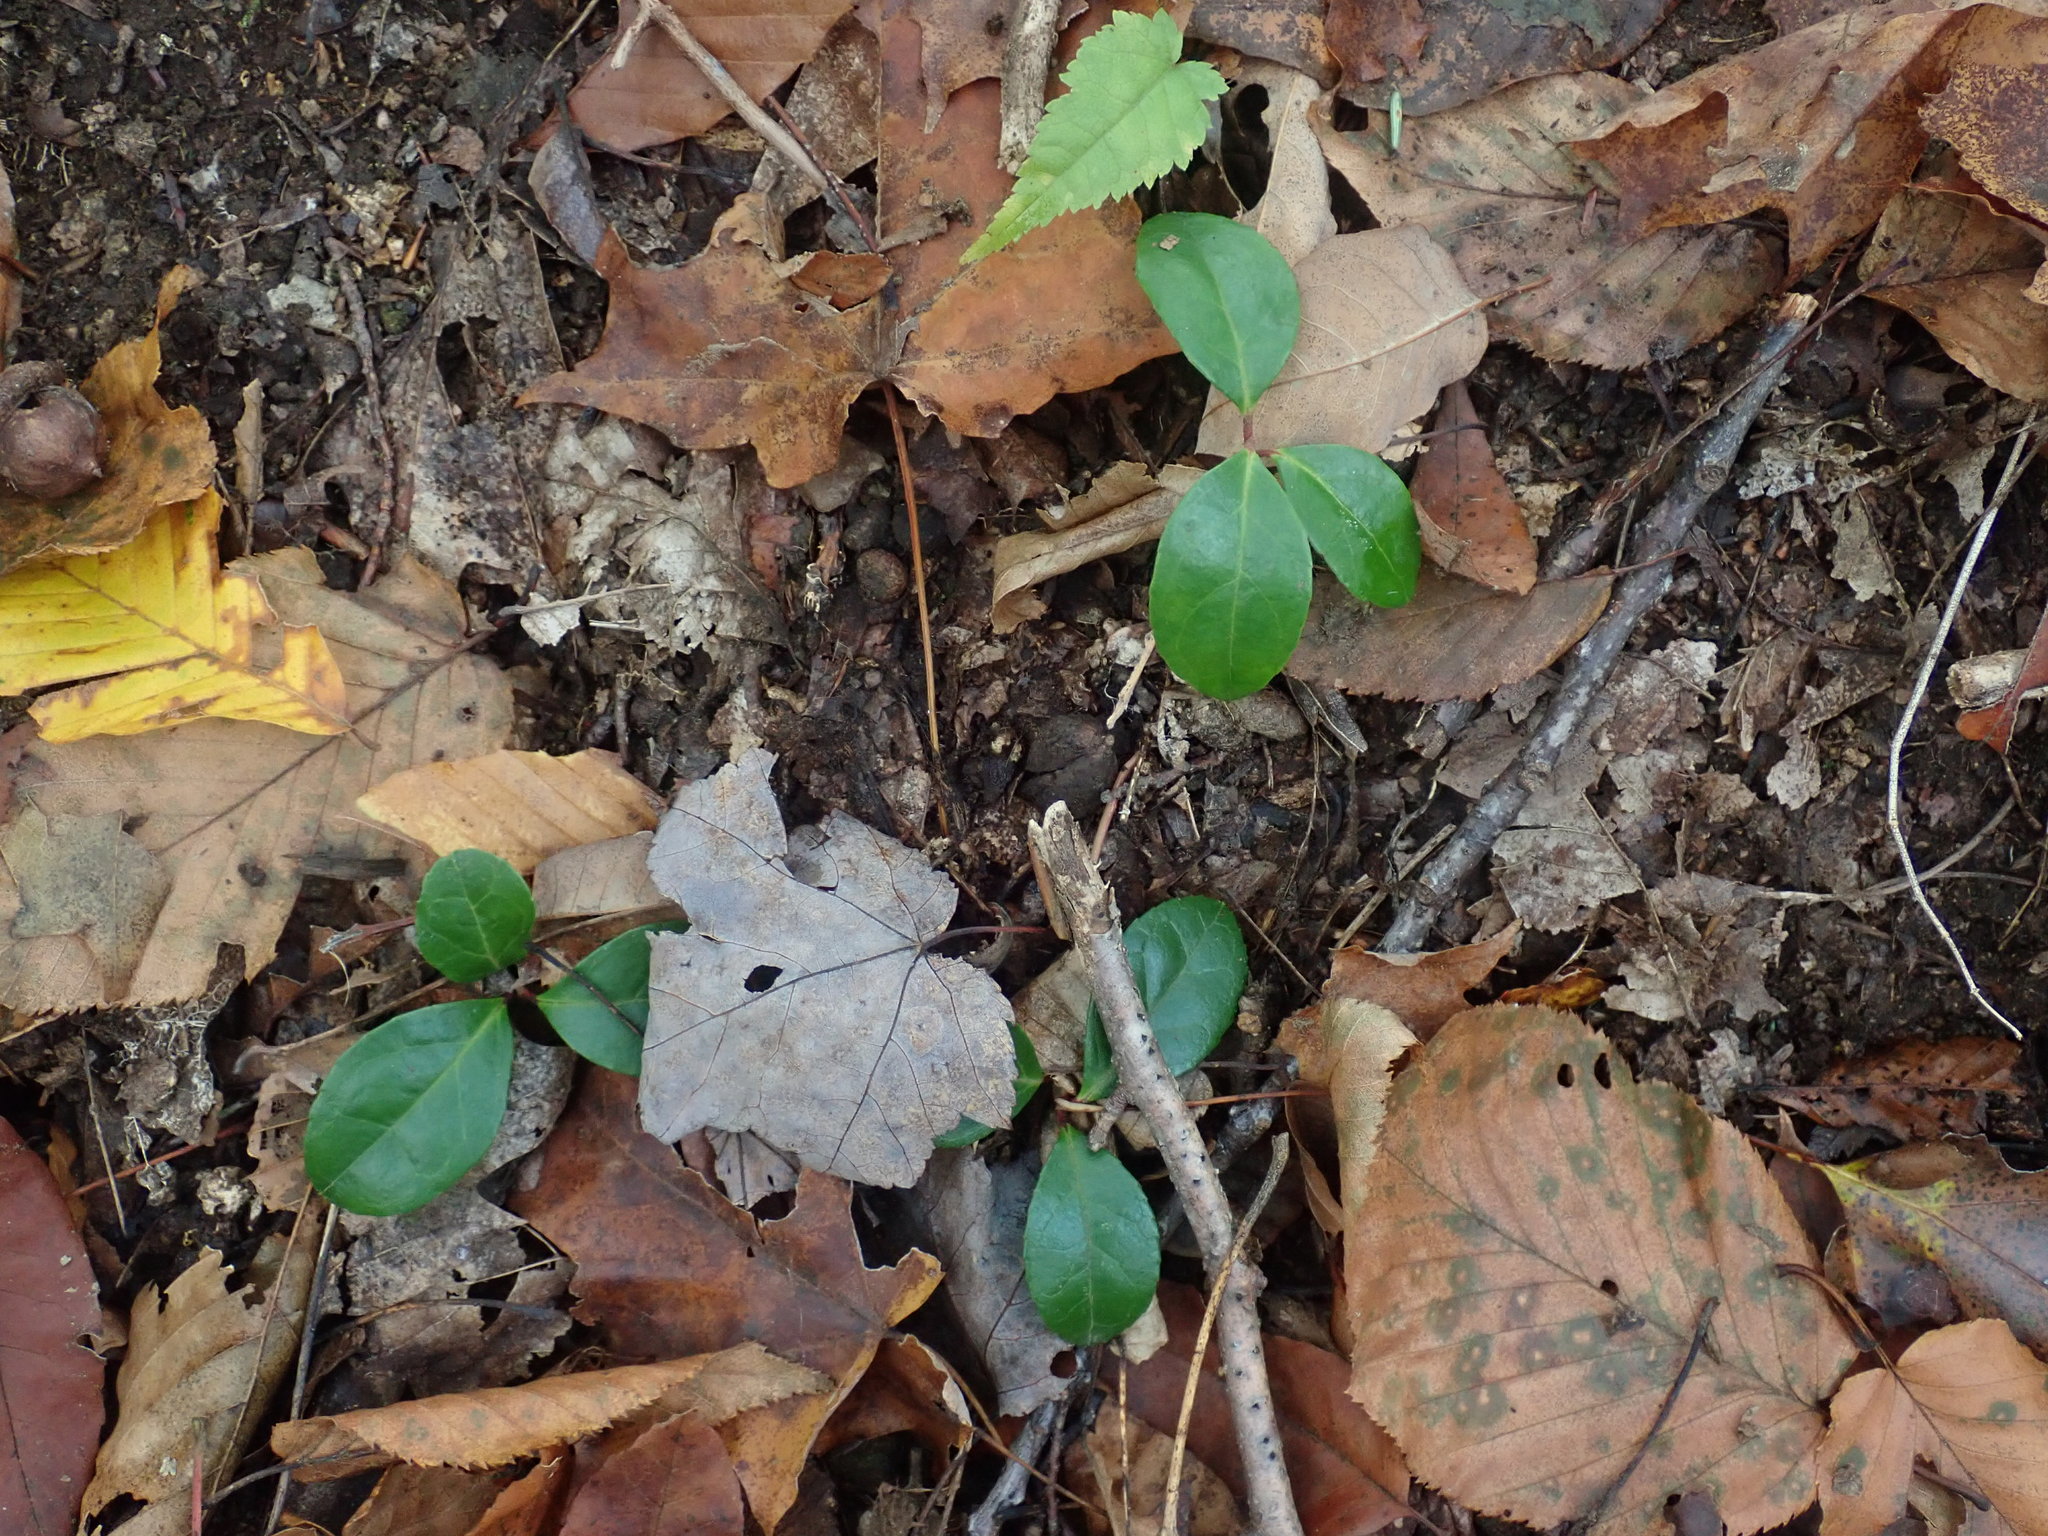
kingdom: Plantae
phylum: Tracheophyta
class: Magnoliopsida
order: Ericales
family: Ericaceae
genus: Gaultheria
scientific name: Gaultheria procumbens
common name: Checkerberry
